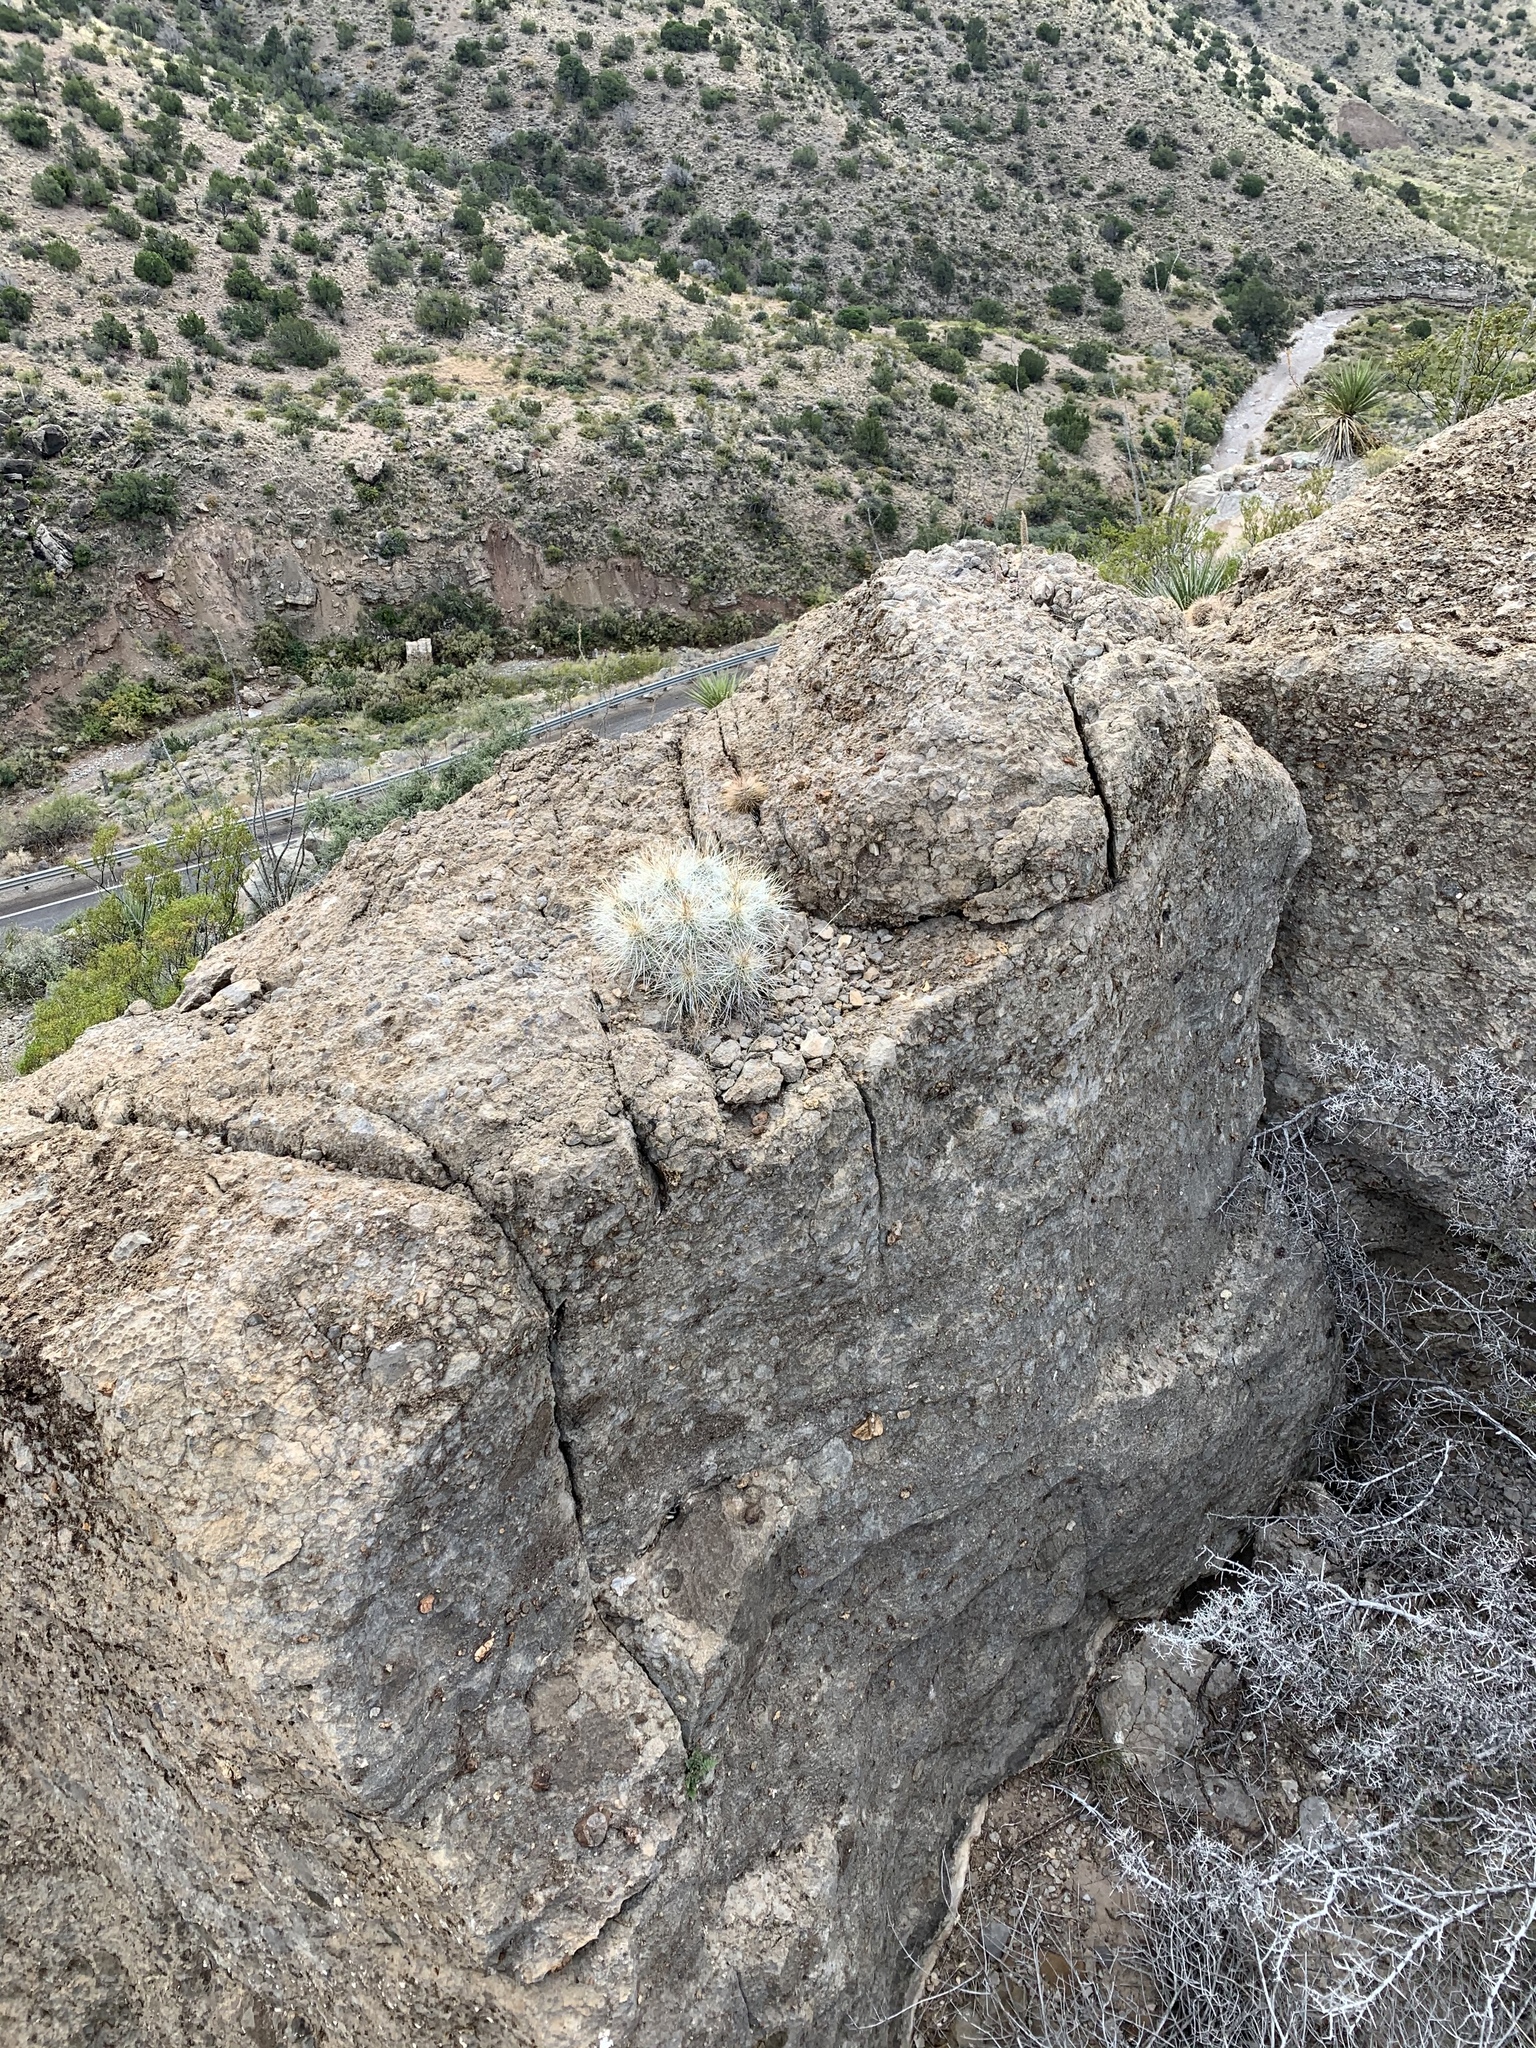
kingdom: Plantae
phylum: Tracheophyta
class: Magnoliopsida
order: Caryophyllales
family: Cactaceae
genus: Echinocereus
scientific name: Echinocereus stramineus
